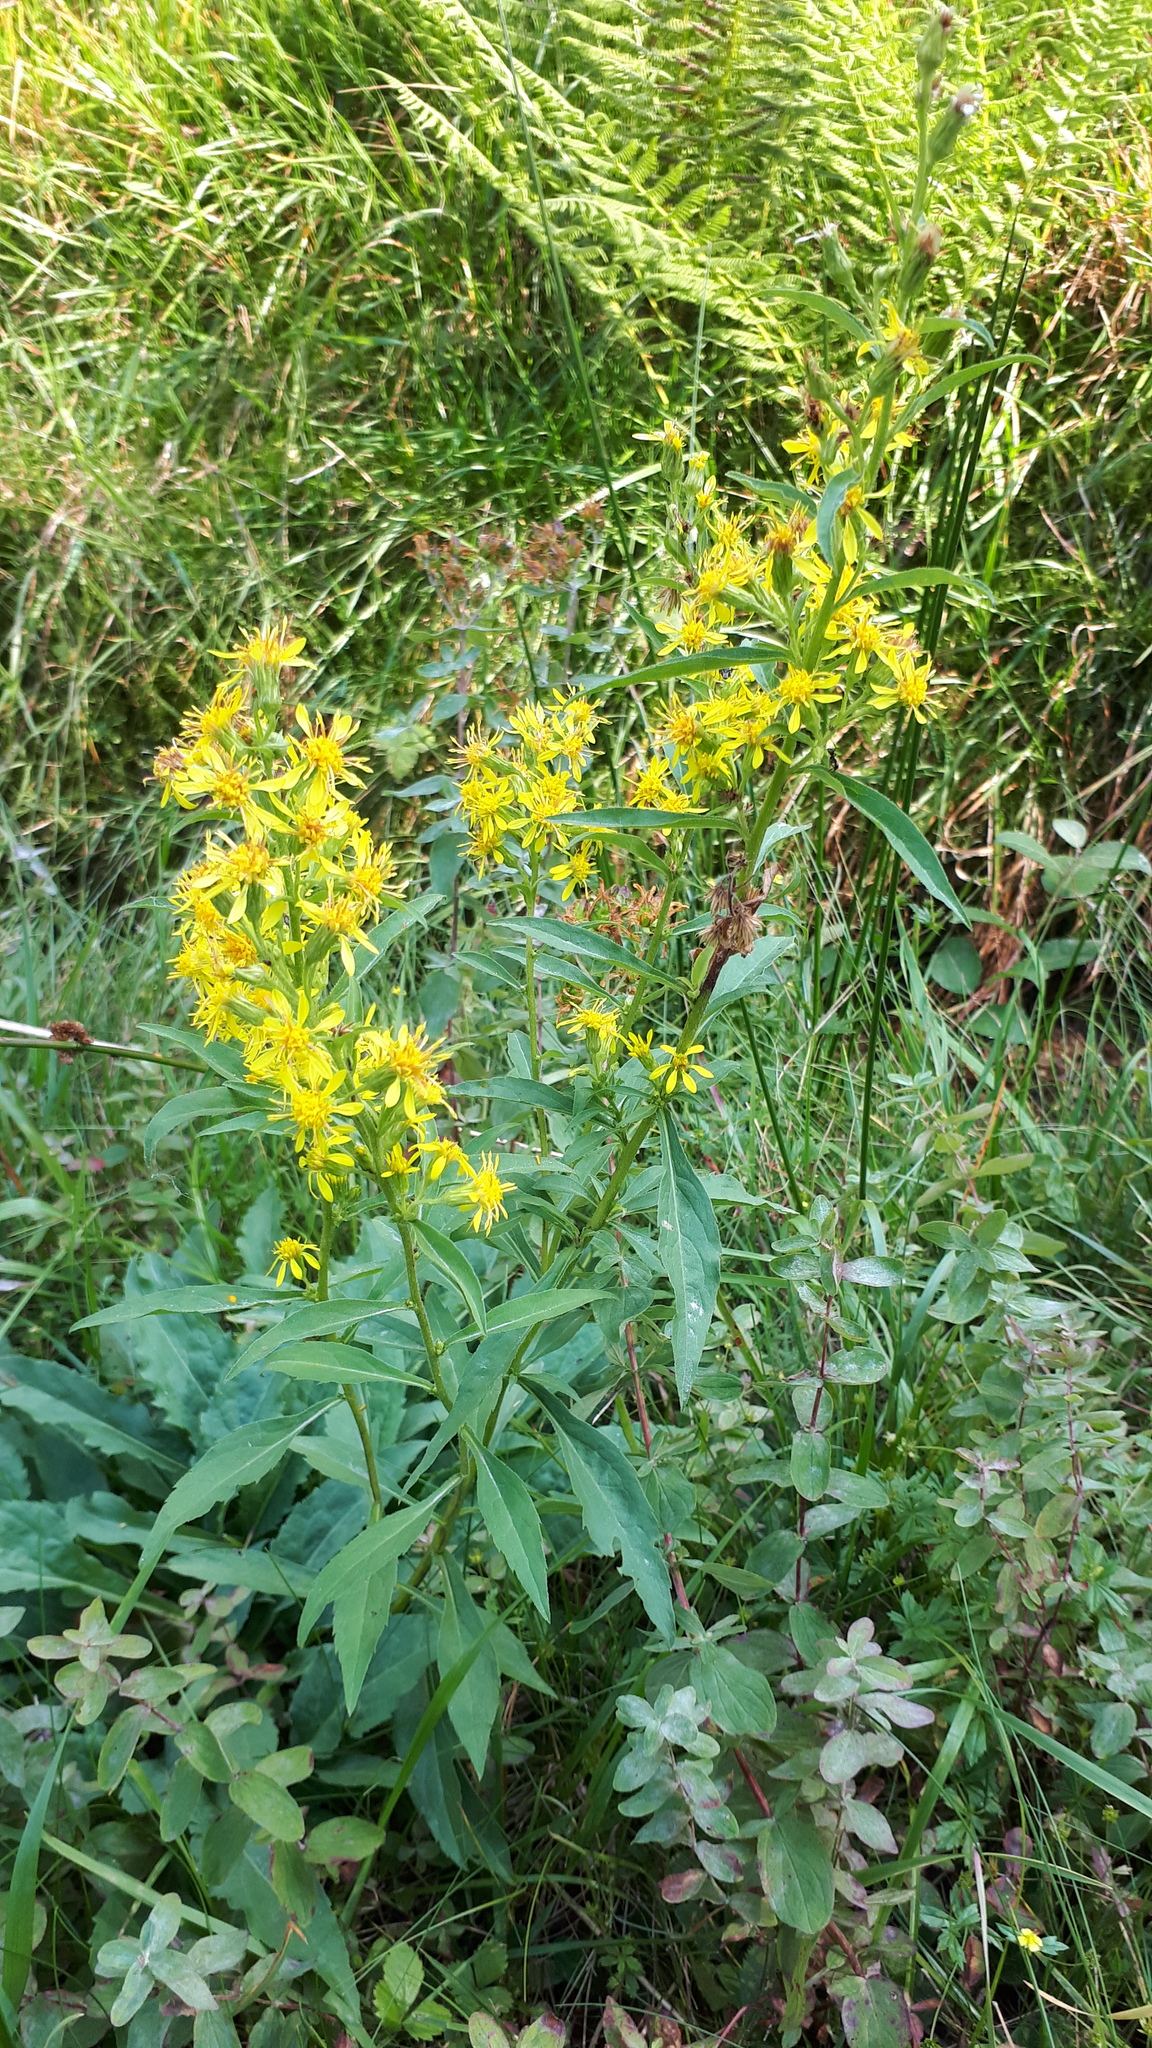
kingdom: Plantae
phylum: Tracheophyta
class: Magnoliopsida
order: Asterales
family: Asteraceae
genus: Solidago
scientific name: Solidago virgaurea
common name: Goldenrod
